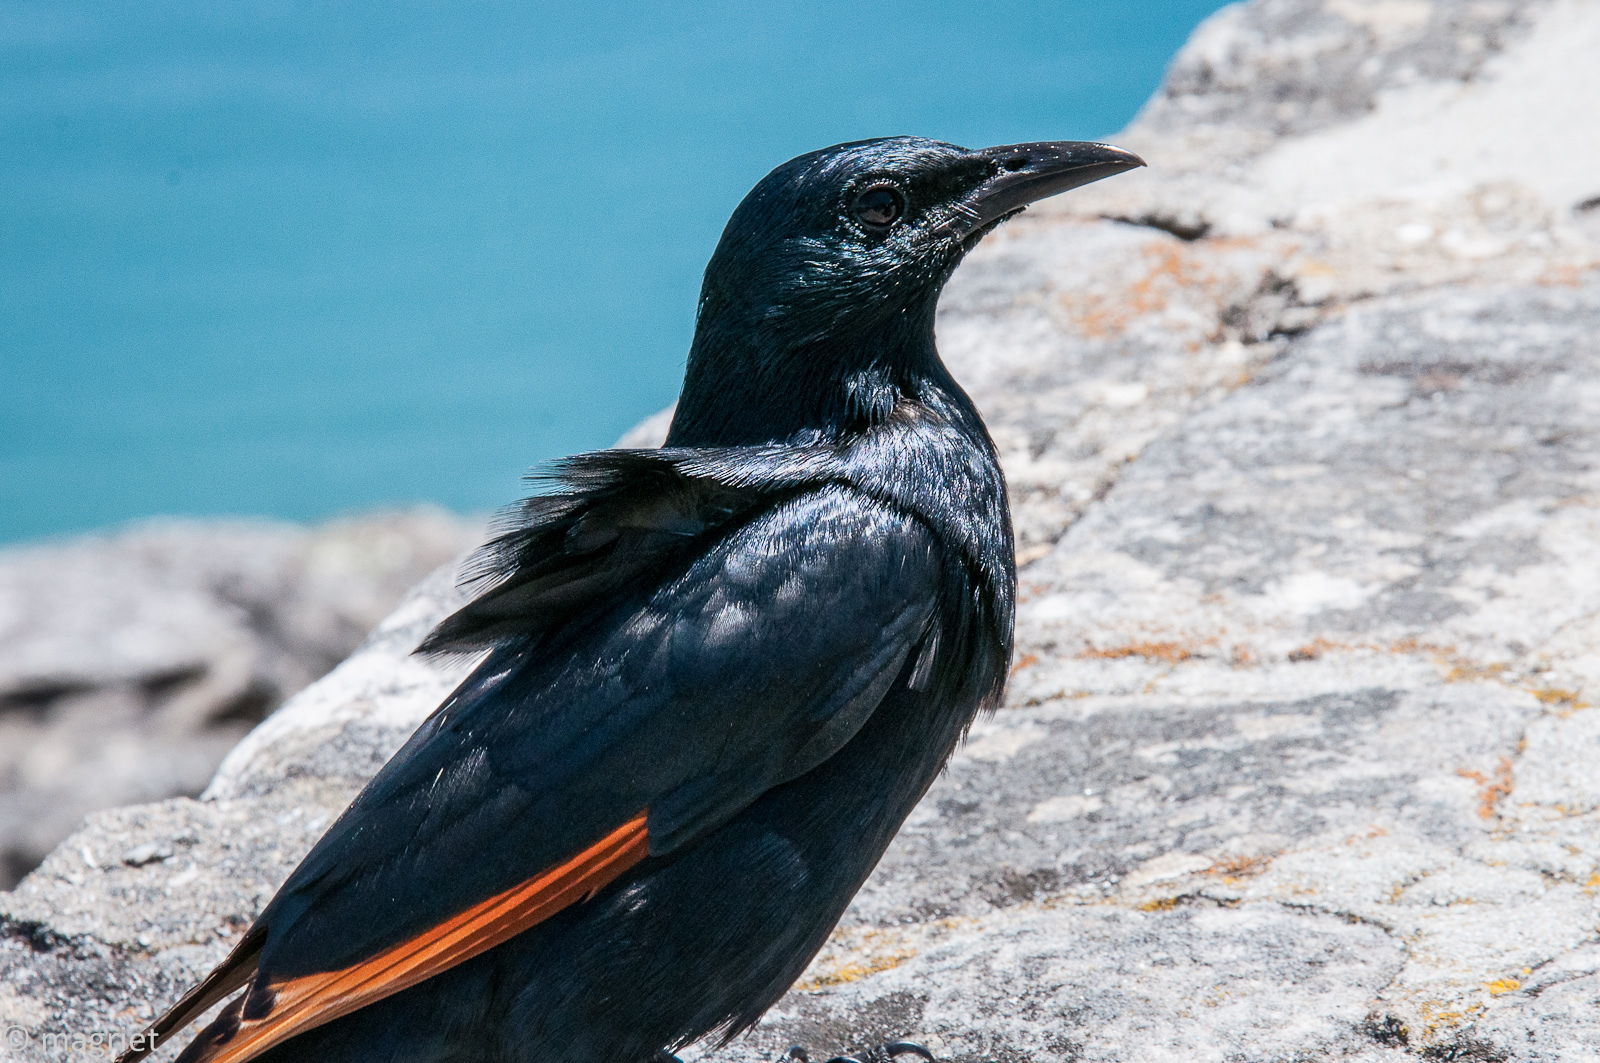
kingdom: Animalia
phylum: Chordata
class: Aves
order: Passeriformes
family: Sturnidae
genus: Onychognathus
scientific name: Onychognathus morio
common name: Red-winged starling
